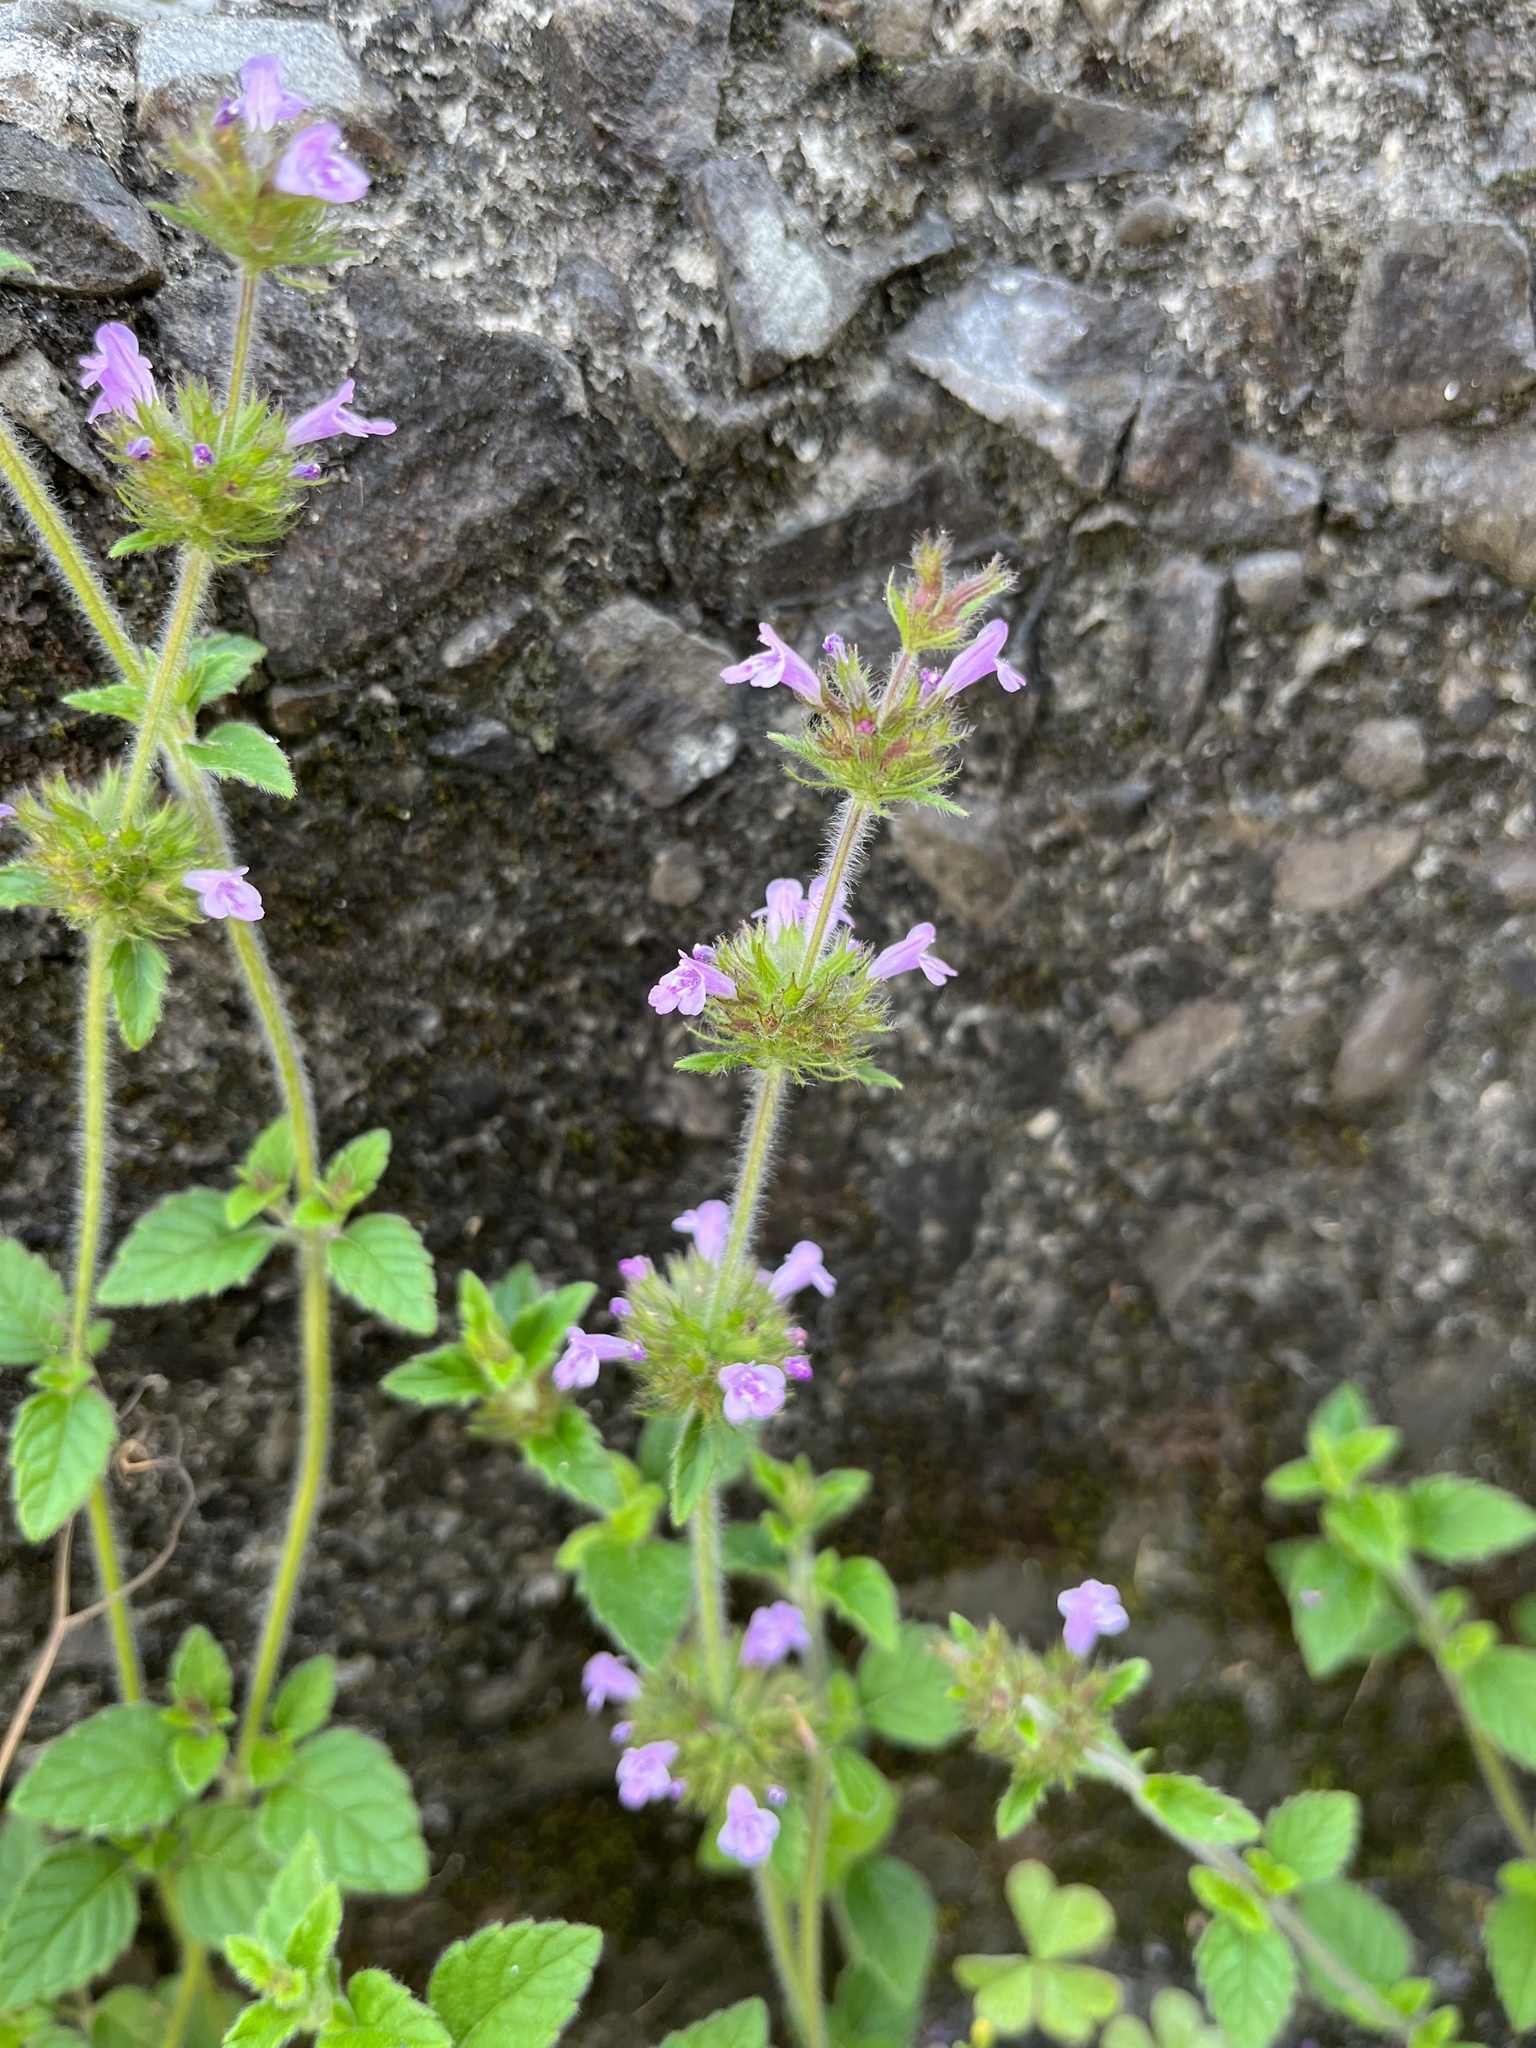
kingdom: Plantae
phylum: Tracheophyta
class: Magnoliopsida
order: Lamiales
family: Lamiaceae
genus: Clinopodium
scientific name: Clinopodium chinense
